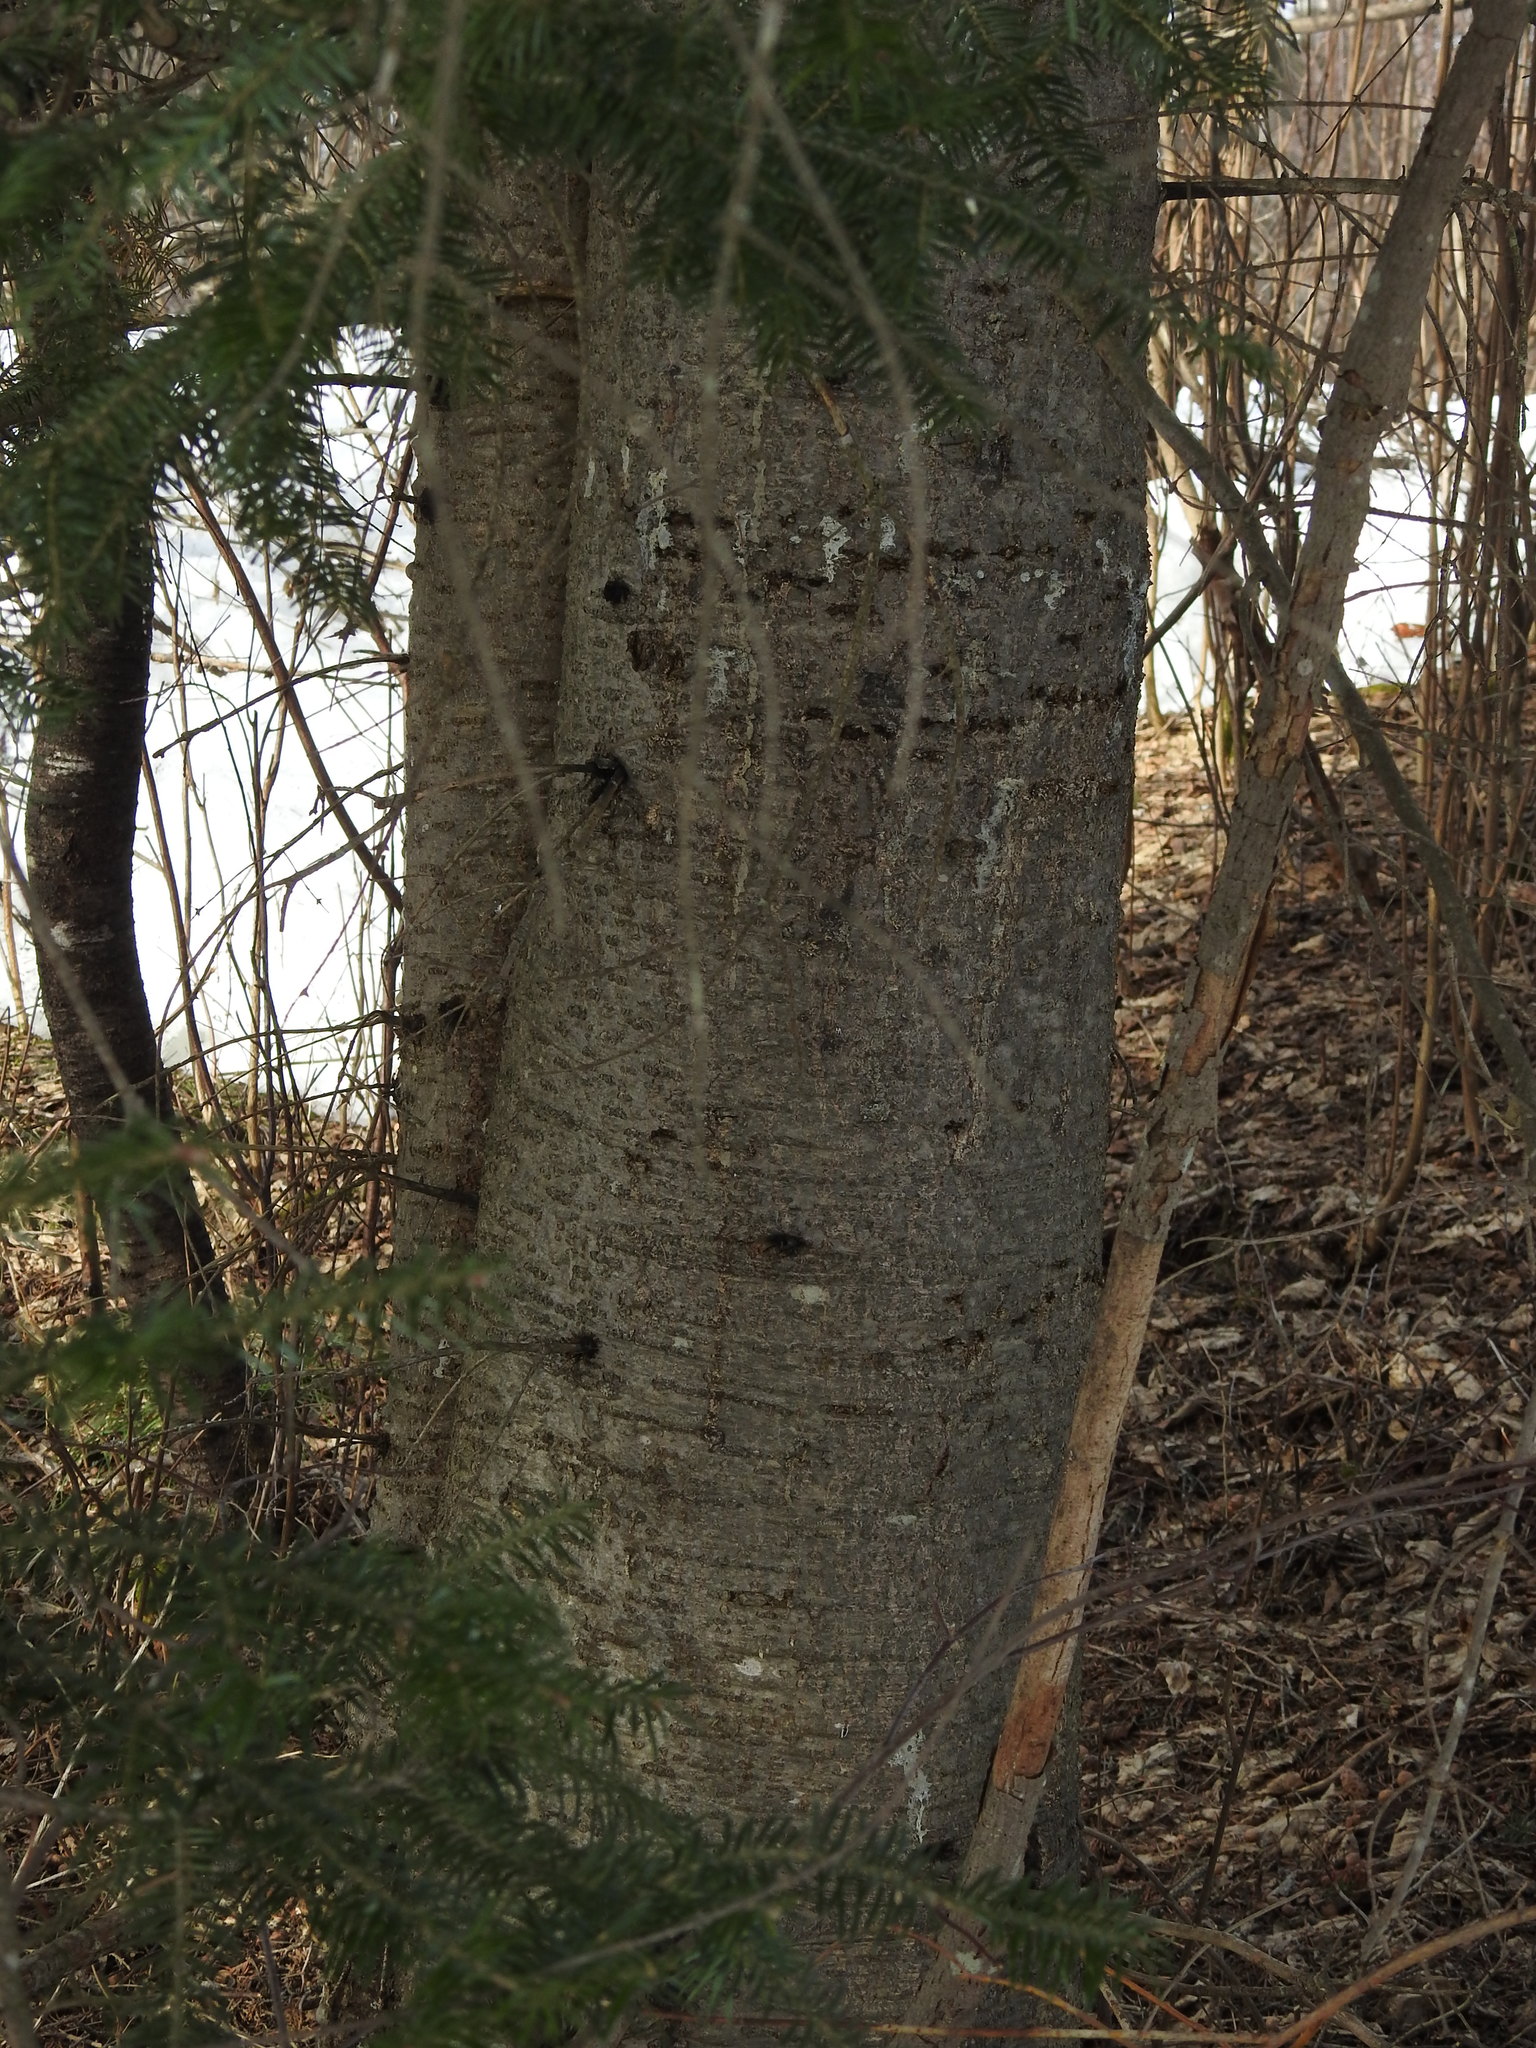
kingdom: Plantae
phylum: Tracheophyta
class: Pinopsida
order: Pinales
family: Pinaceae
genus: Abies
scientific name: Abies balsamea
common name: Balsam fir
